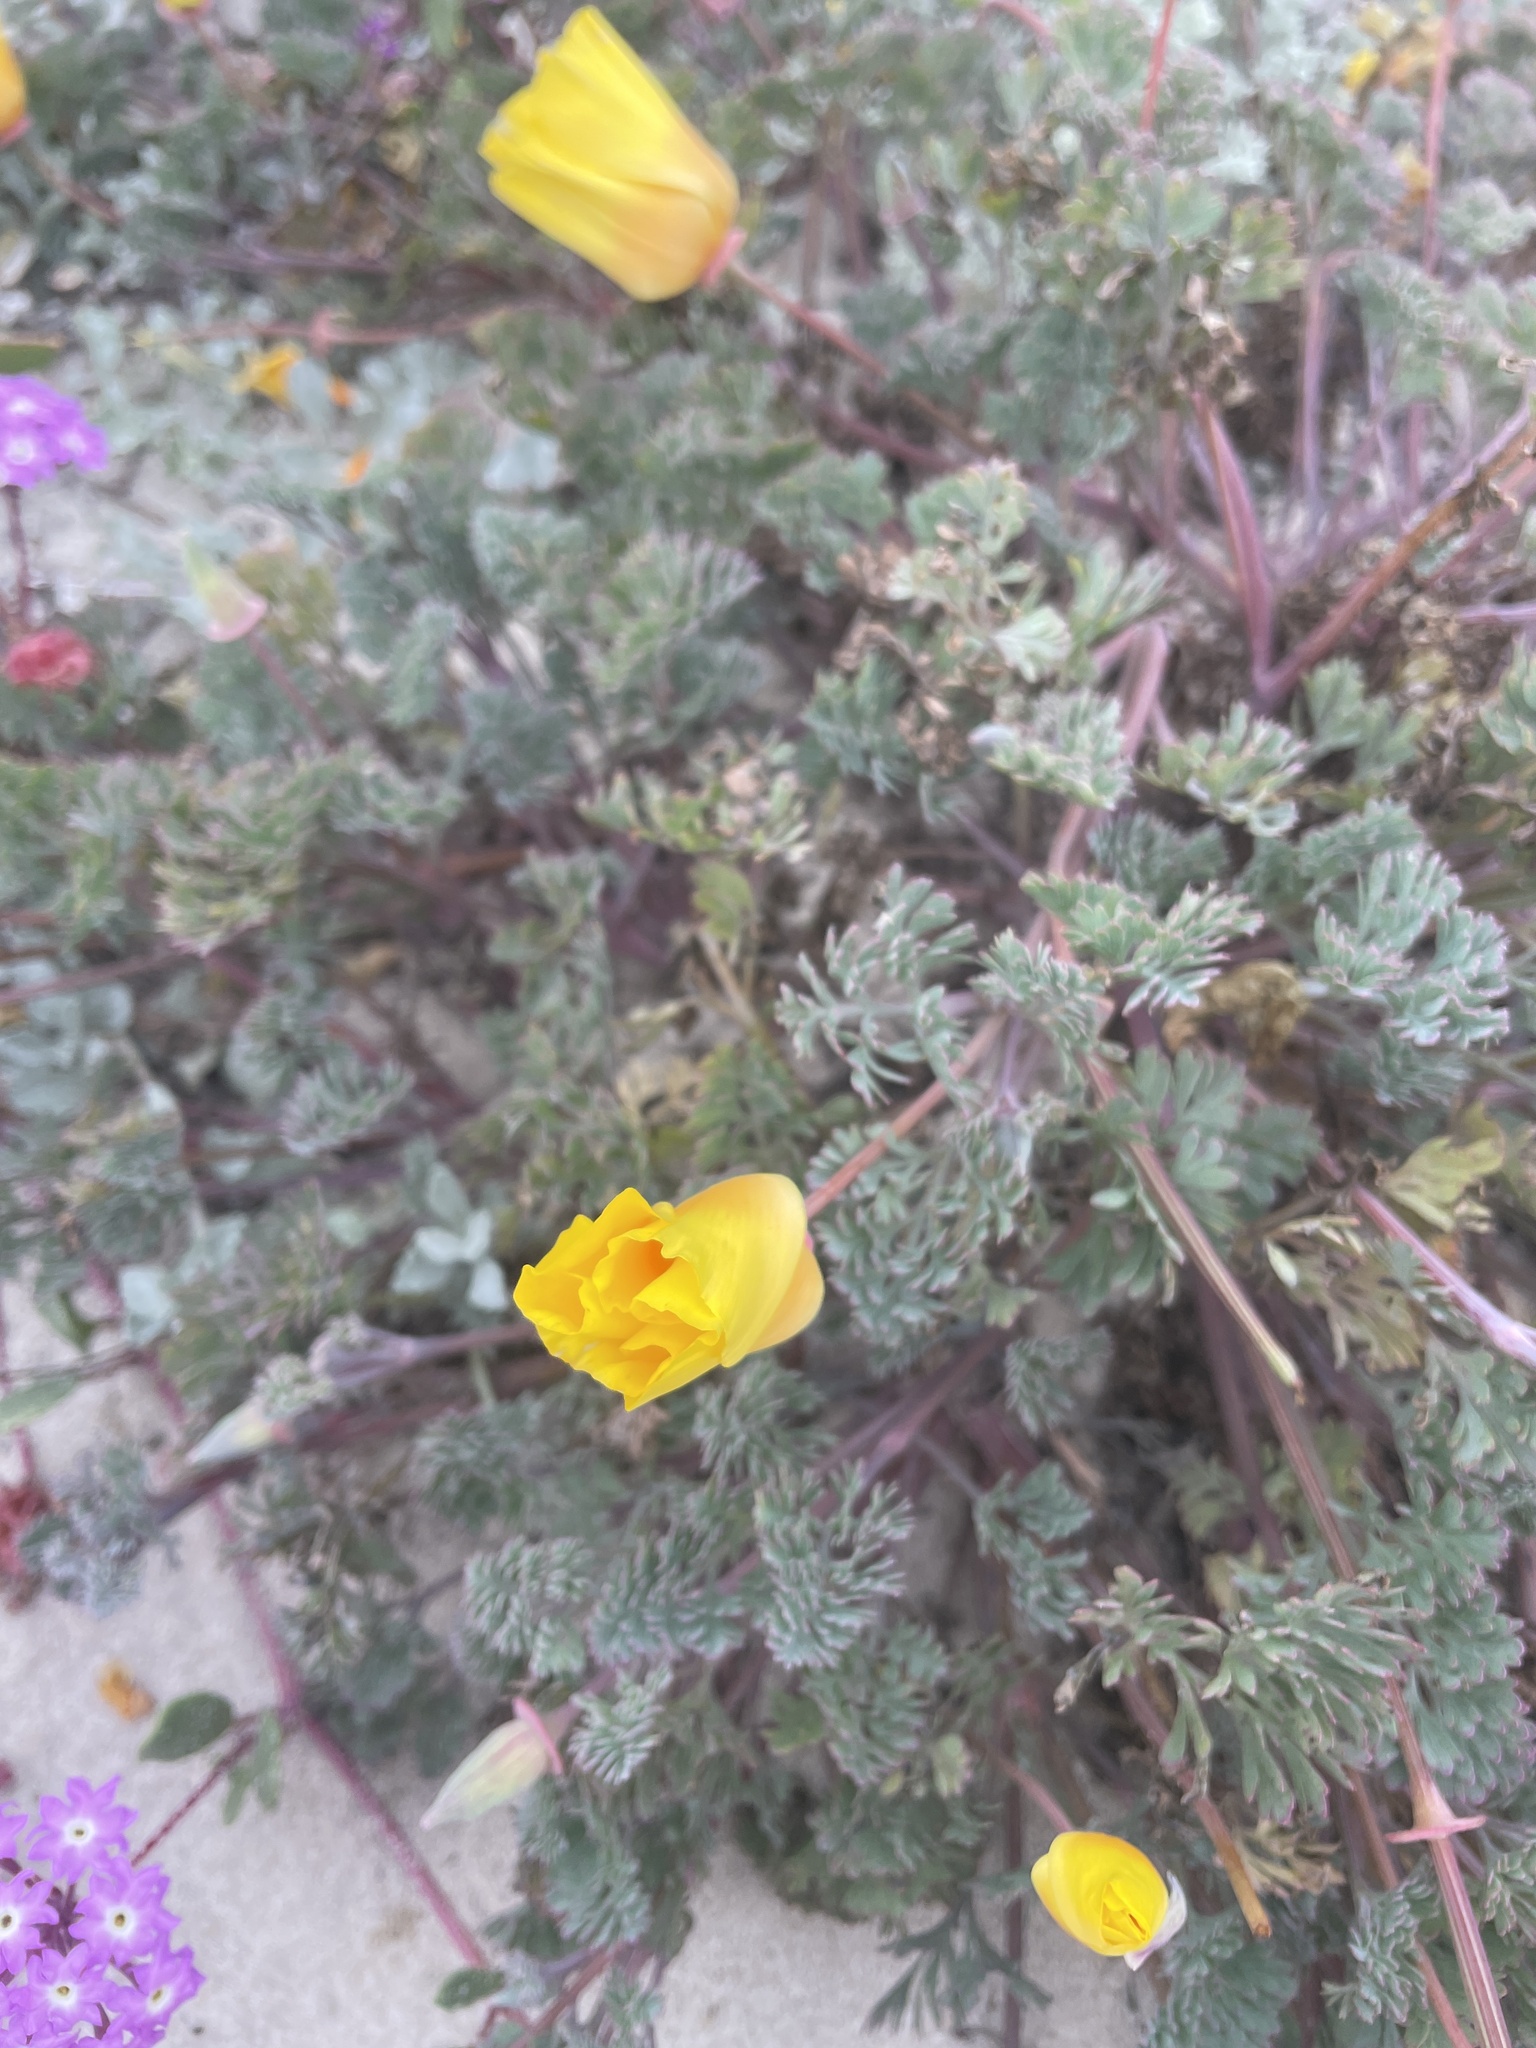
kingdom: Plantae
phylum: Tracheophyta
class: Magnoliopsida
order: Ranunculales
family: Papaveraceae
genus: Eschscholzia
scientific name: Eschscholzia californica
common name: California poppy
